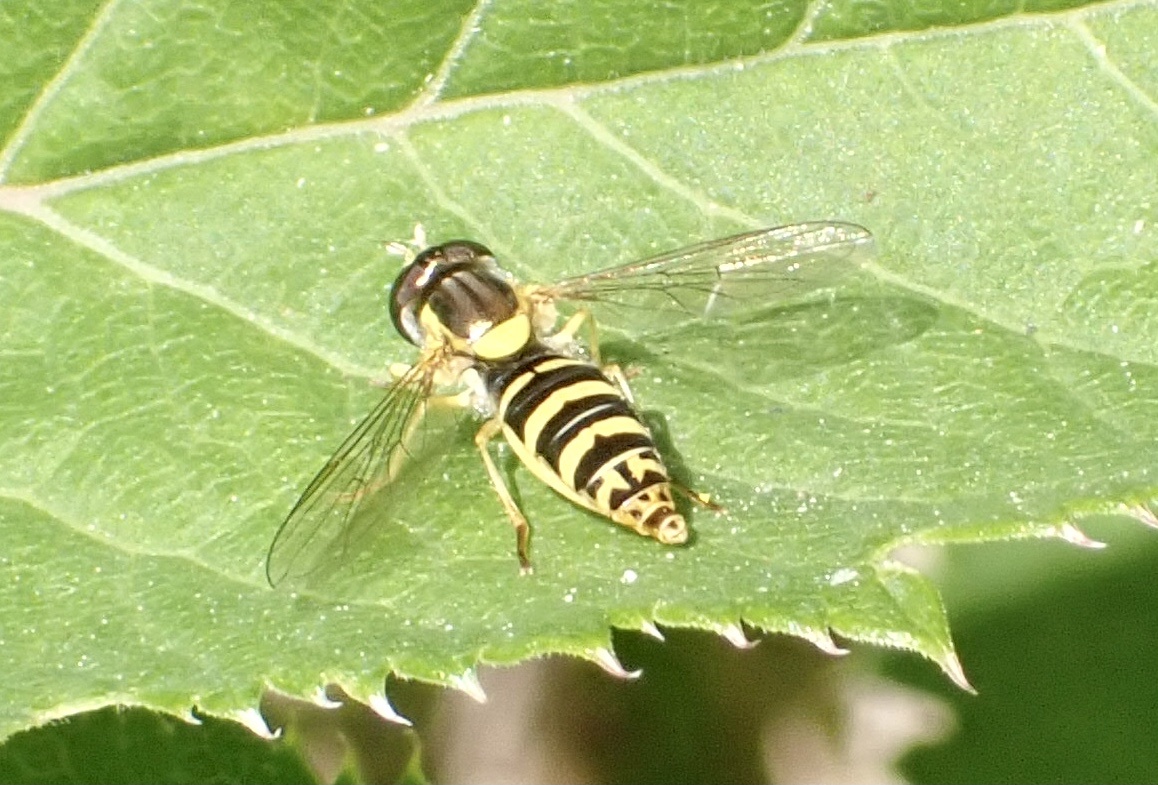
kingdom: Animalia
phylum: Arthropoda
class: Insecta
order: Diptera
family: Syrphidae
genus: Sphaerophoria
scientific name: Sphaerophoria
